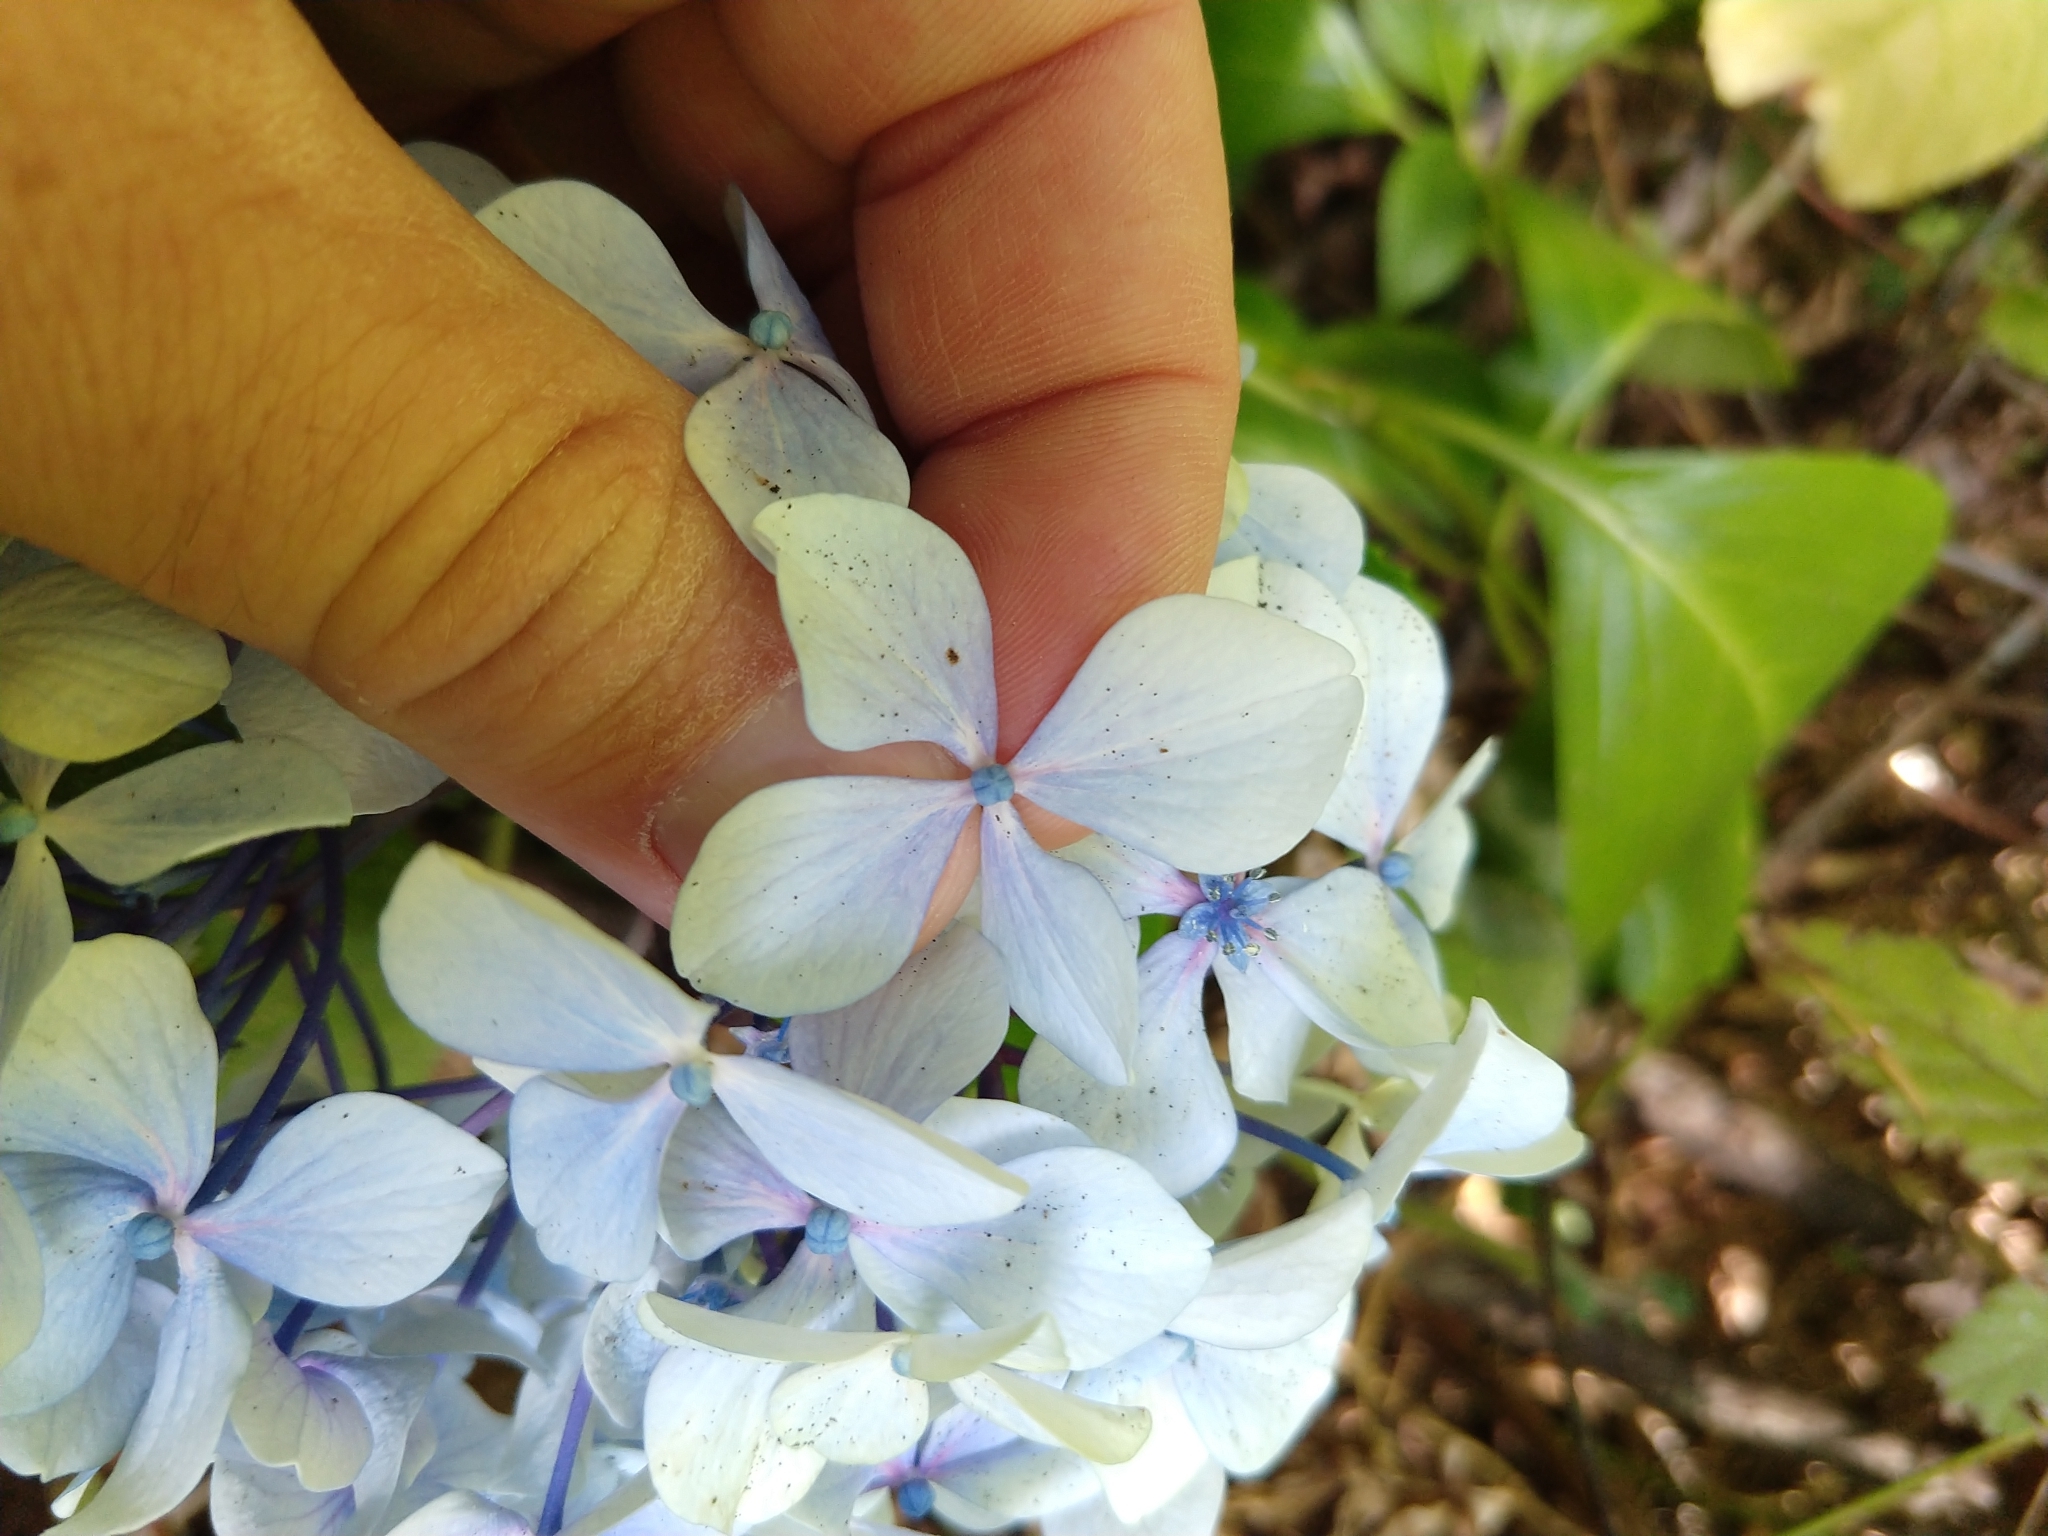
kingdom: Plantae
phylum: Tracheophyta
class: Magnoliopsida
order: Cornales
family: Hydrangeaceae
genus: Hydrangea
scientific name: Hydrangea macrophylla
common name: Hydrangea
